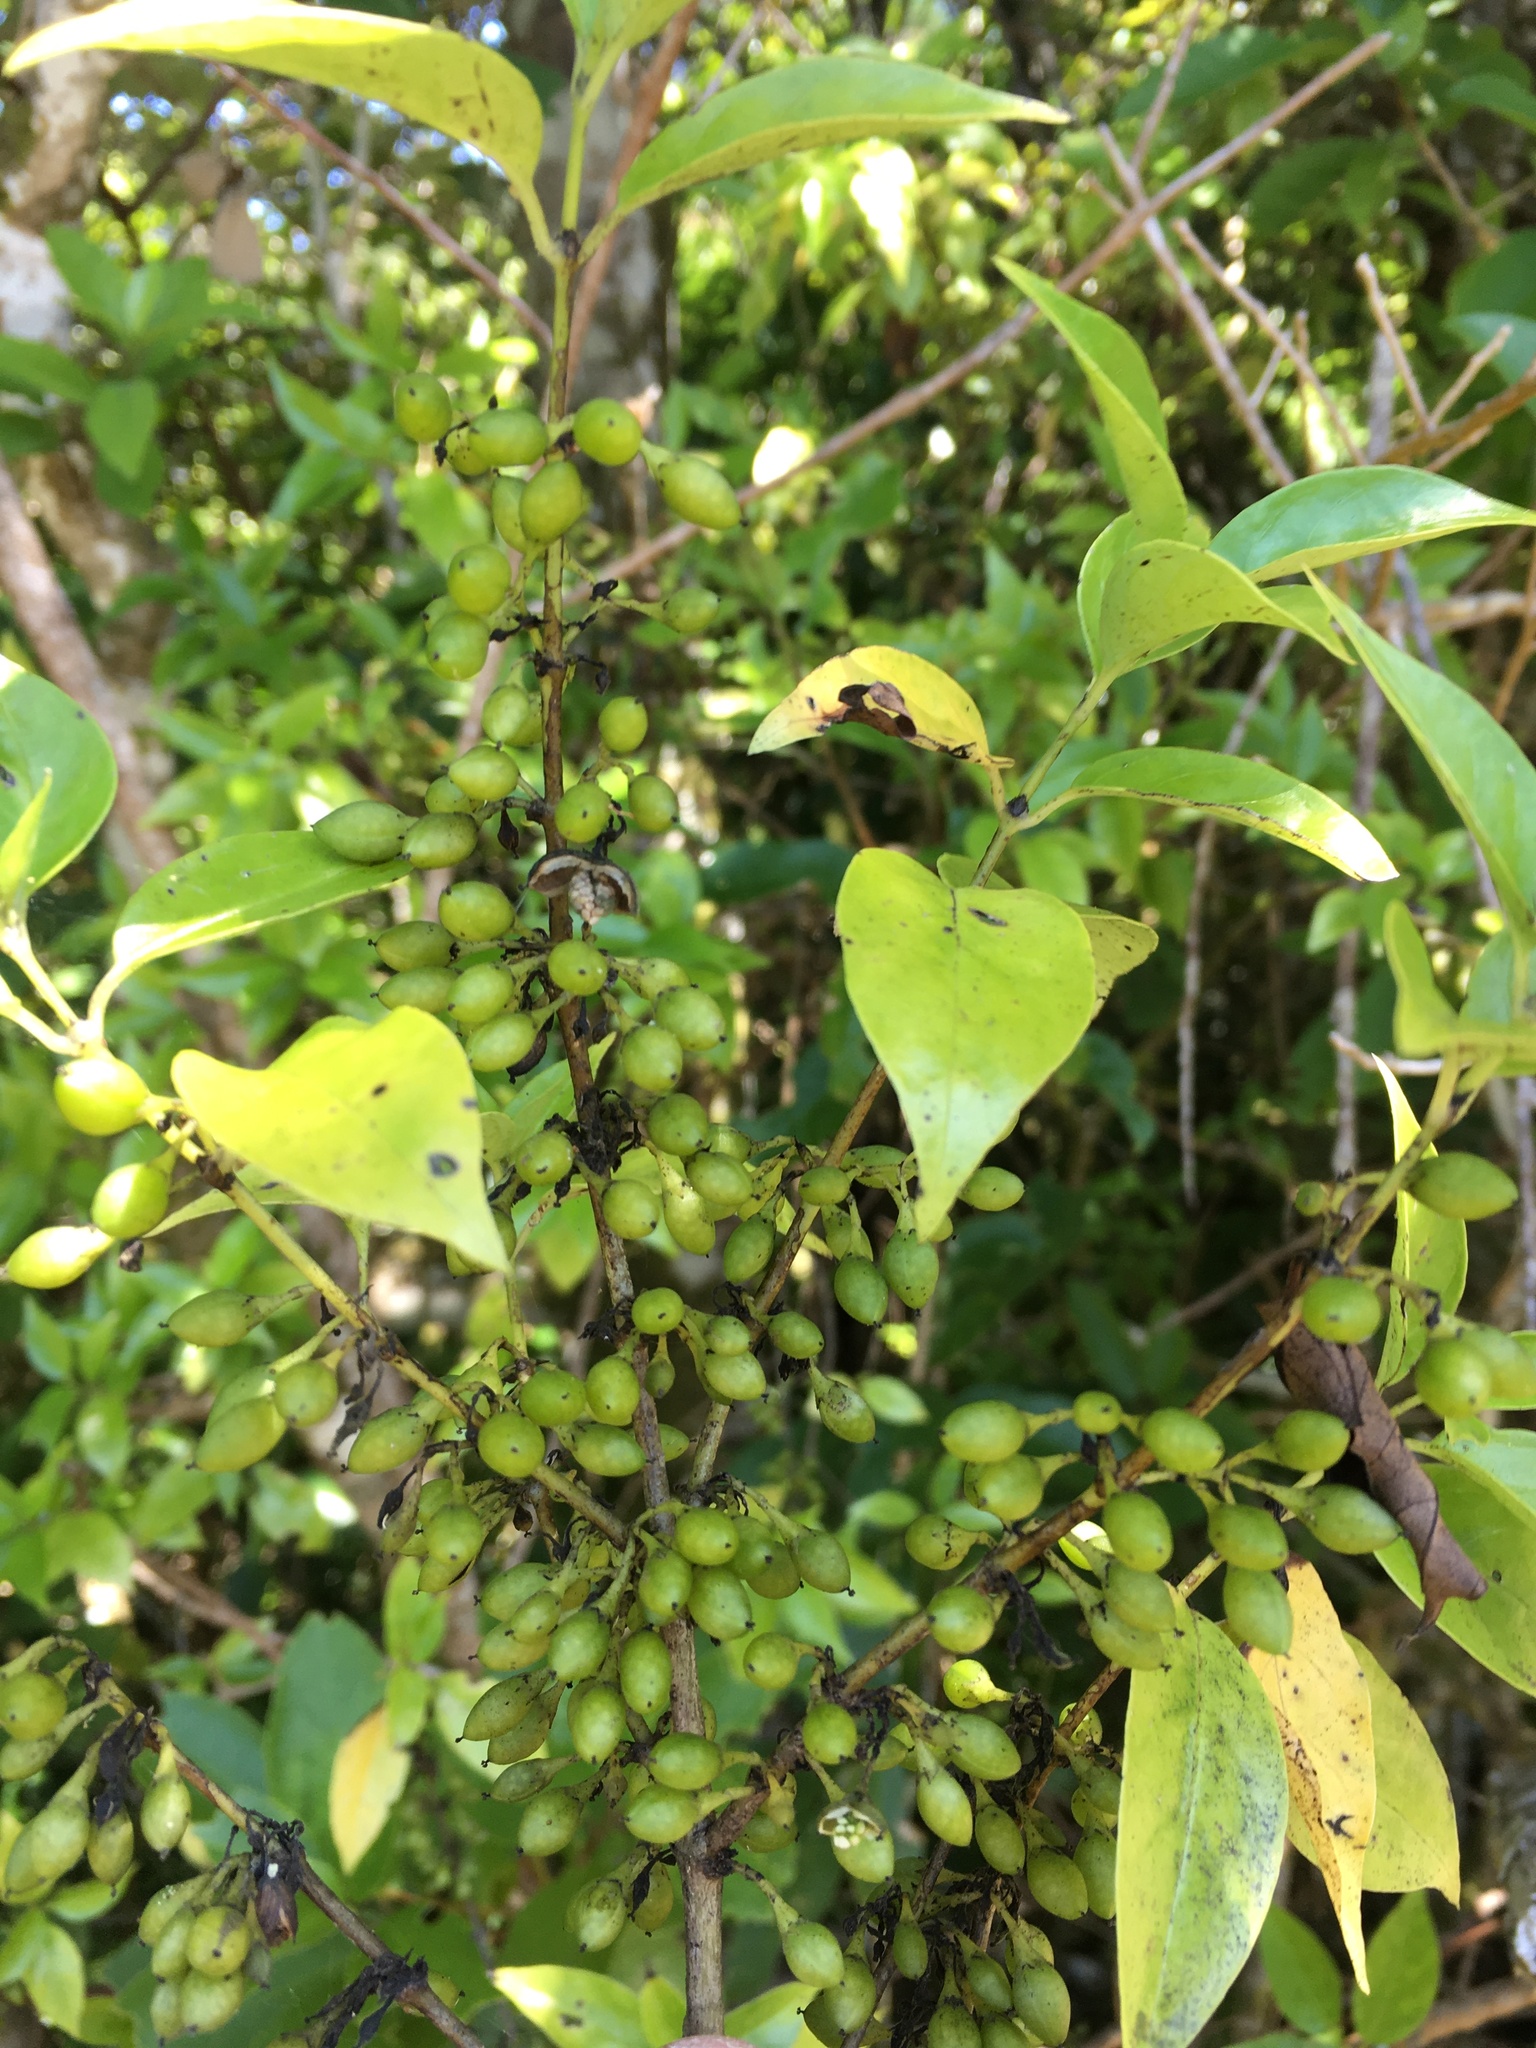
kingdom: Plantae
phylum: Tracheophyta
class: Magnoliopsida
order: Gentianales
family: Loganiaceae
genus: Geniostoma
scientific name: Geniostoma ligustrifolium
